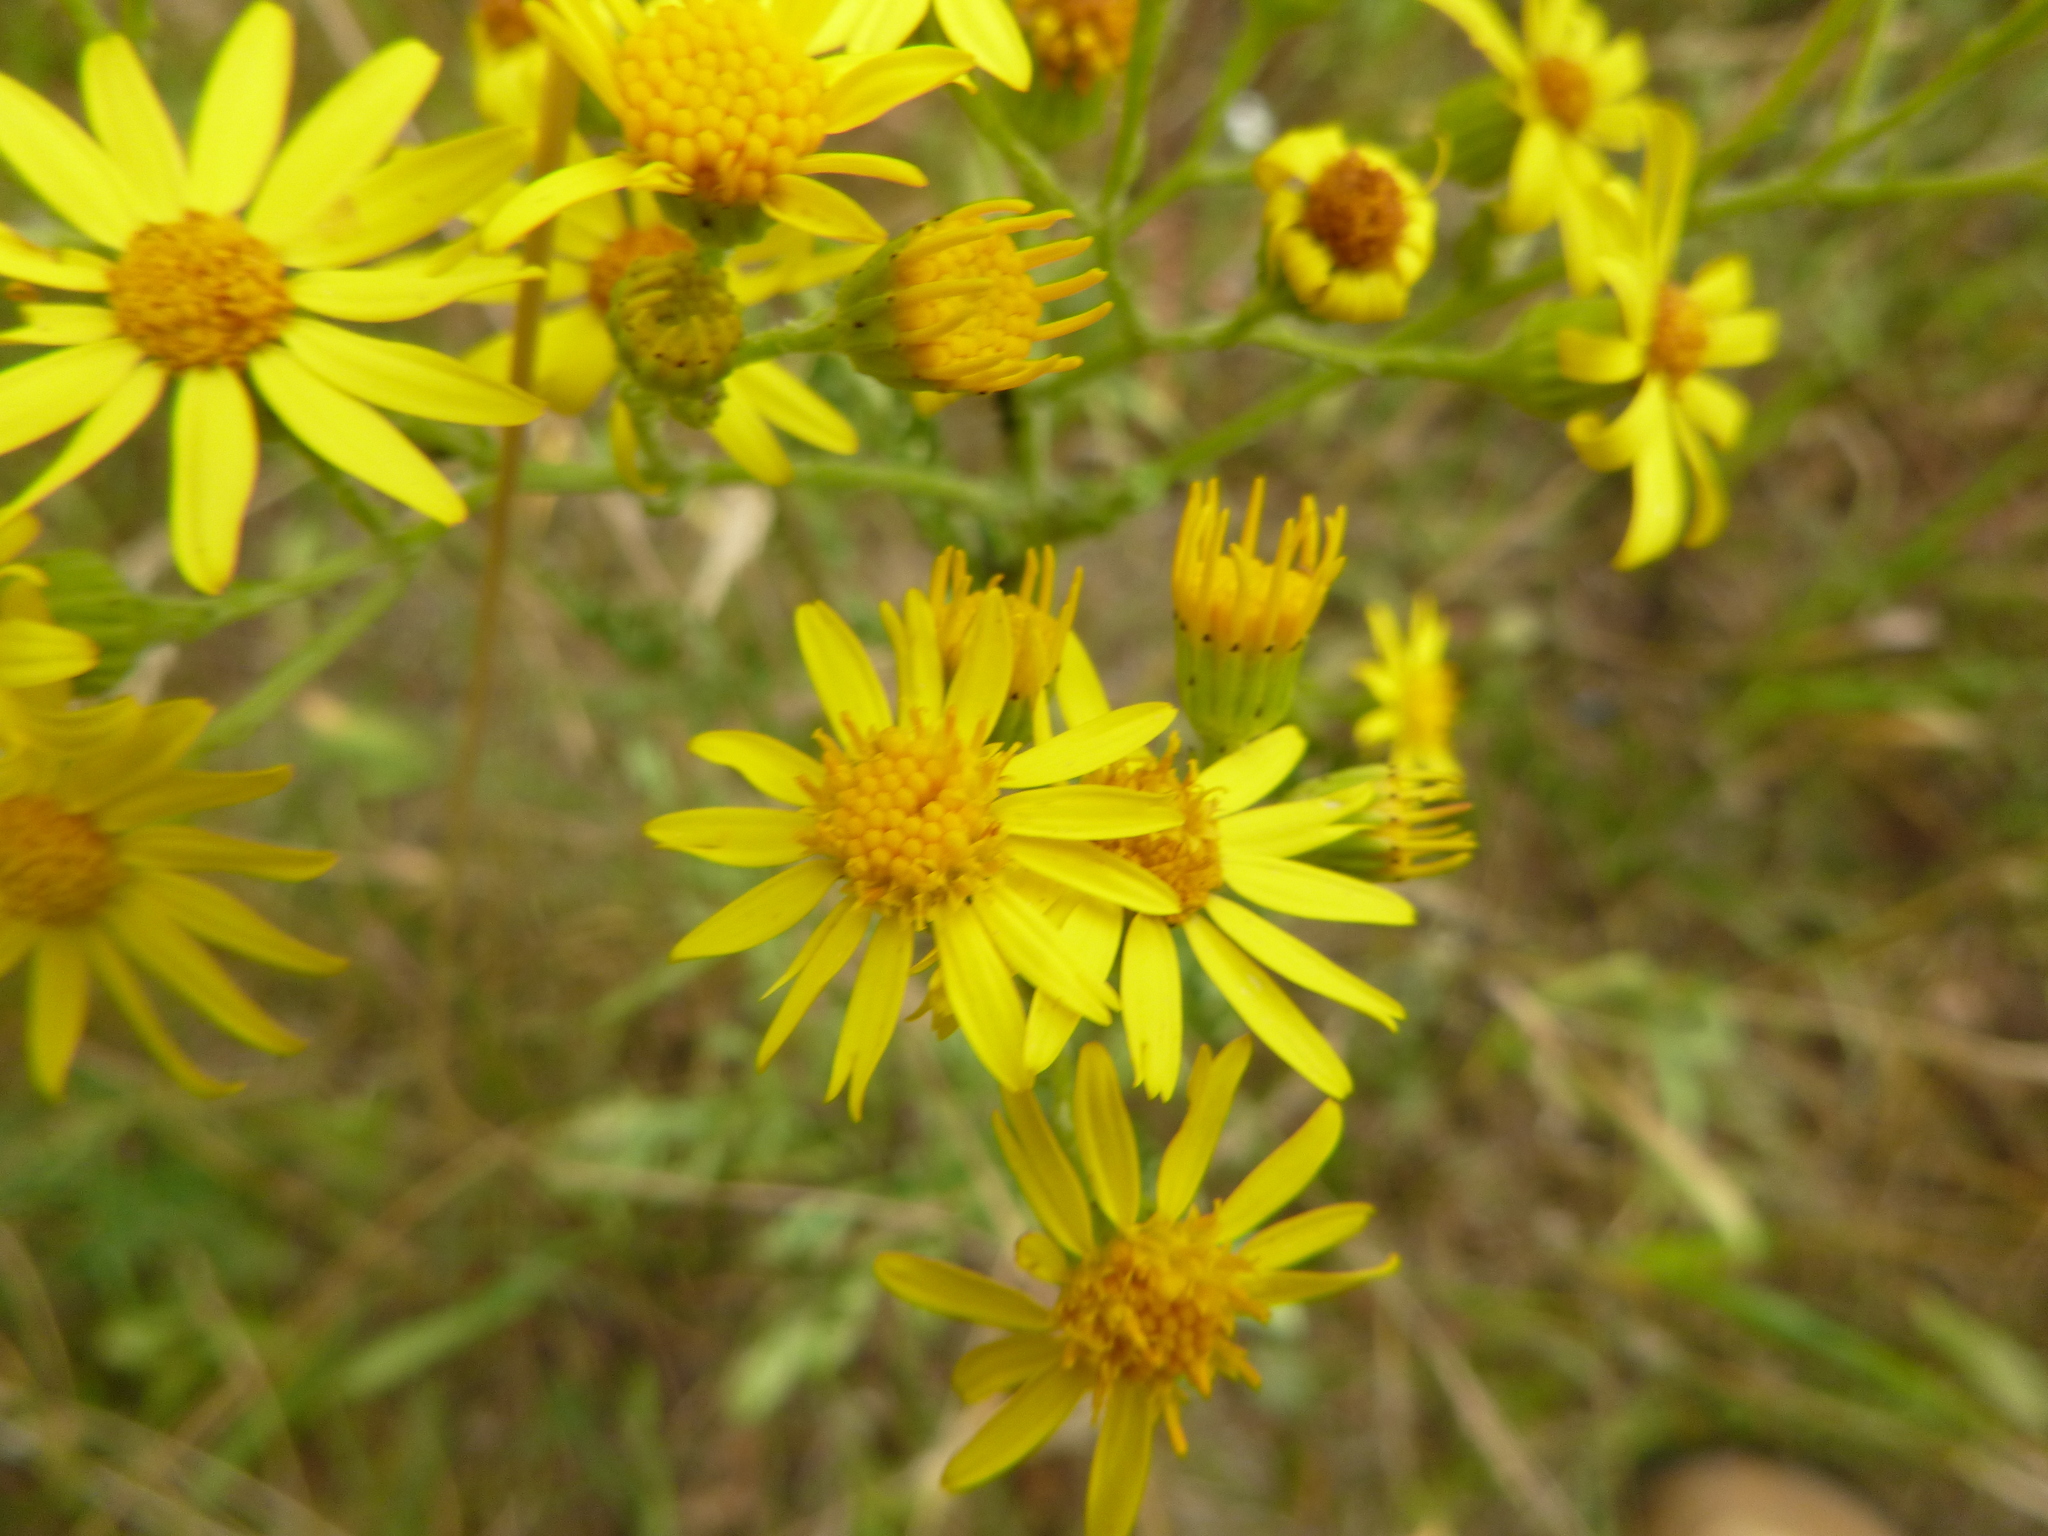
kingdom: Plantae
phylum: Tracheophyta
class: Magnoliopsida
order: Asterales
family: Asteraceae
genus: Jacobaea
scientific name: Jacobaea vulgaris
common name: Stinking willie
